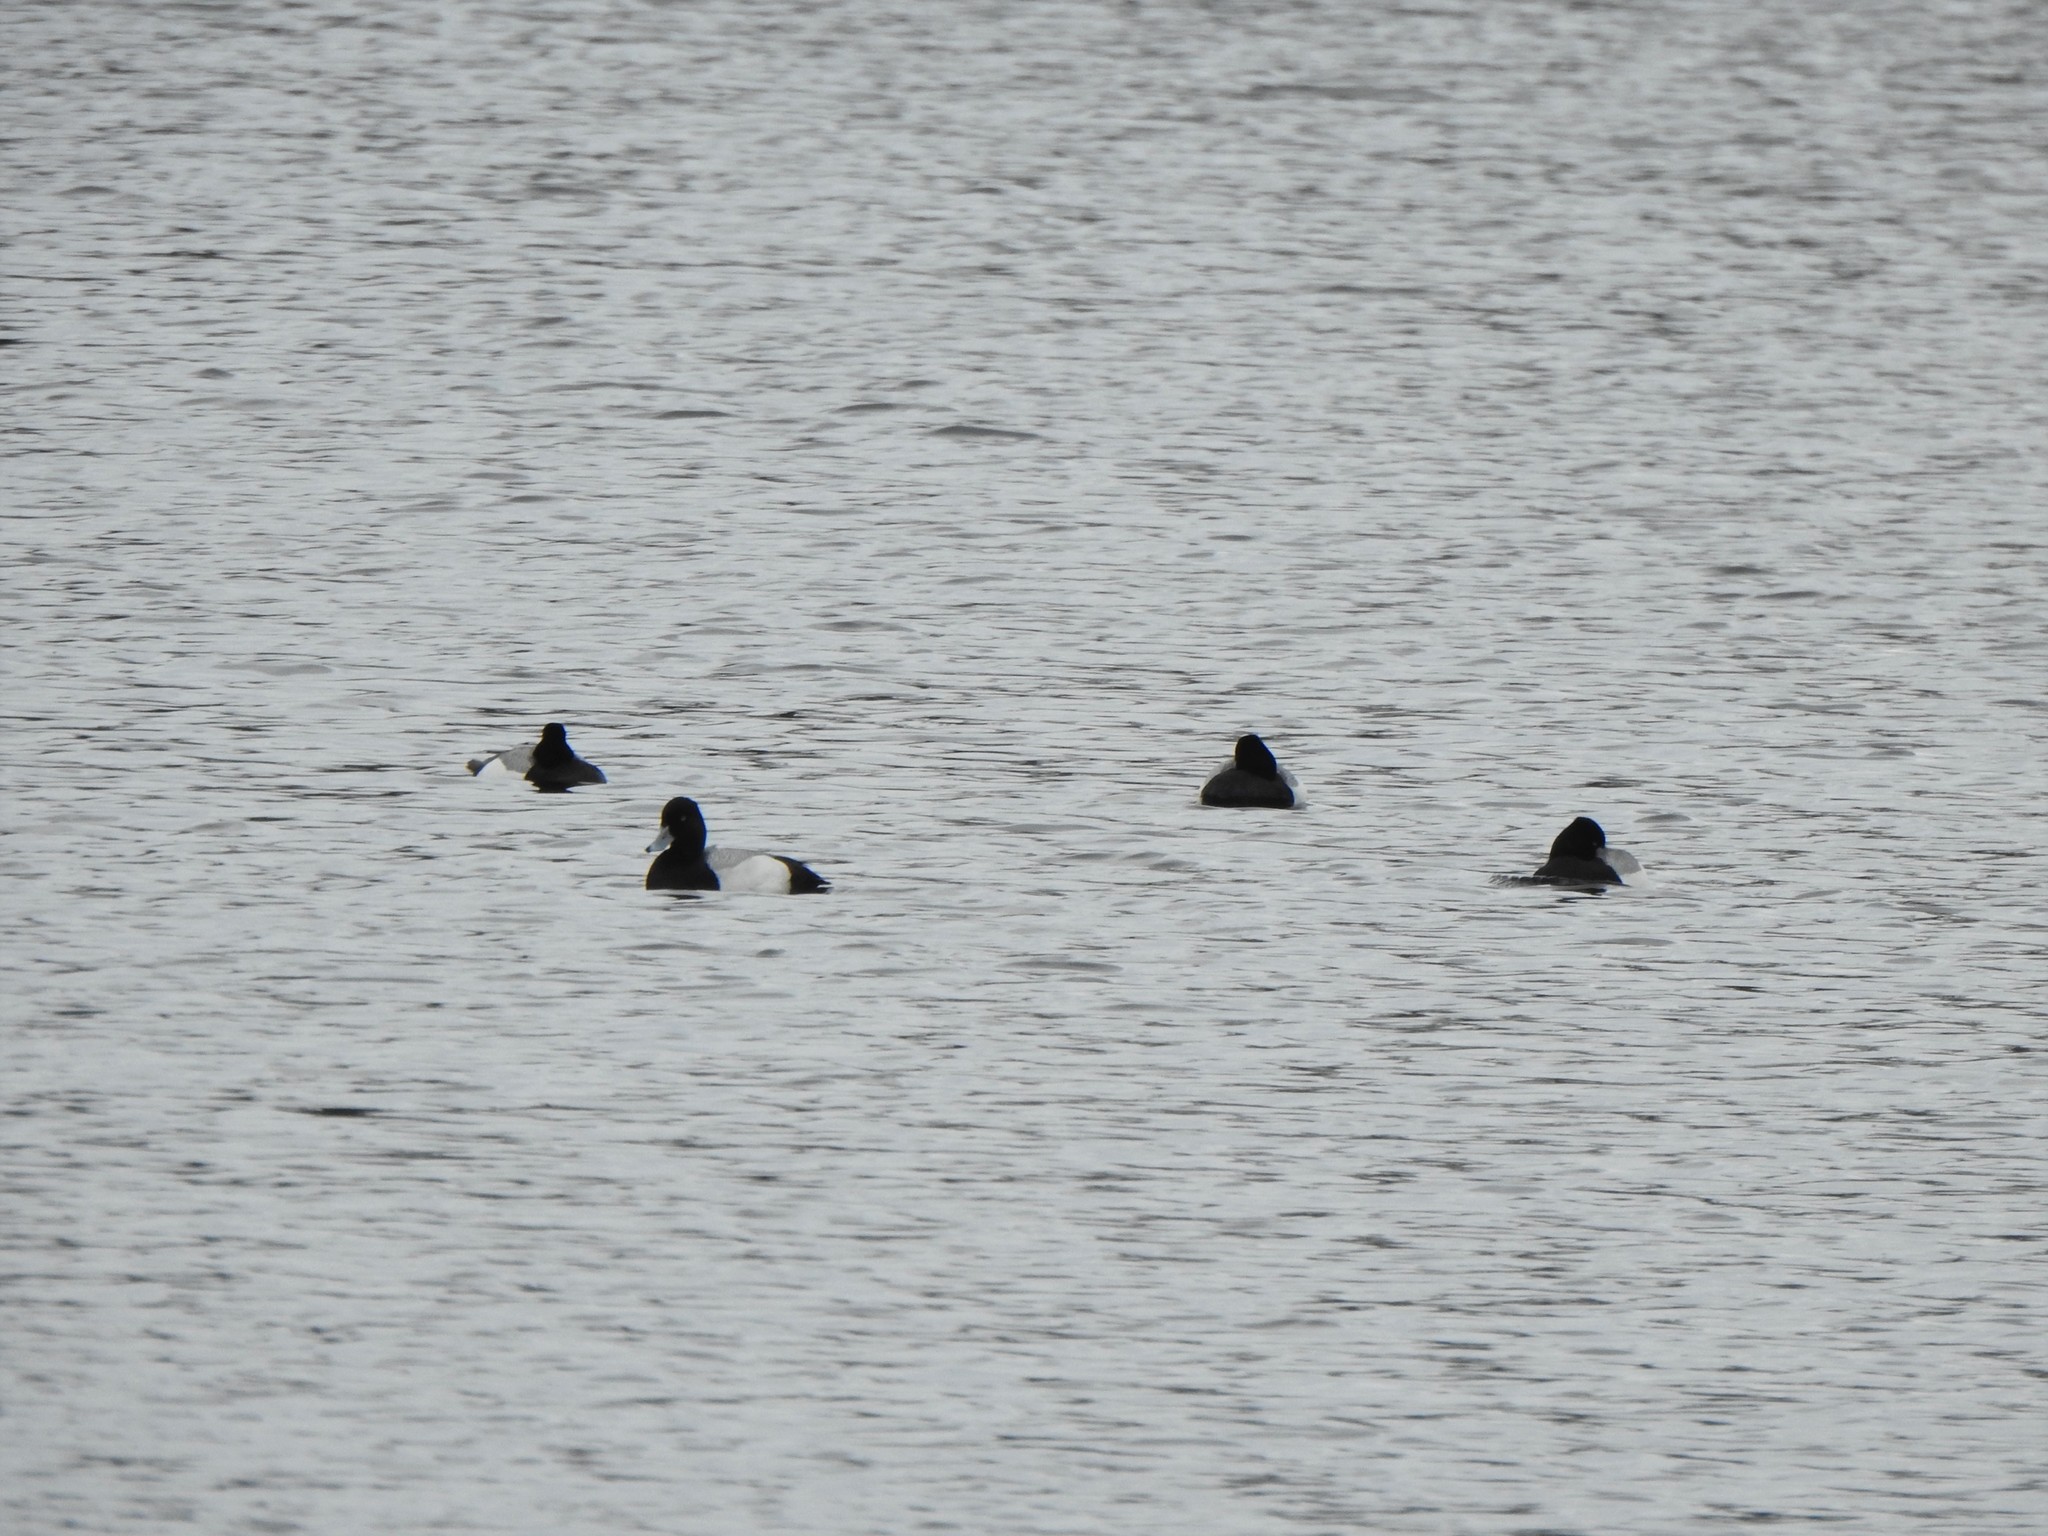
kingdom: Animalia
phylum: Chordata
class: Aves
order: Anseriformes
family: Anatidae
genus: Aythya
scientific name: Aythya affinis
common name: Lesser scaup
